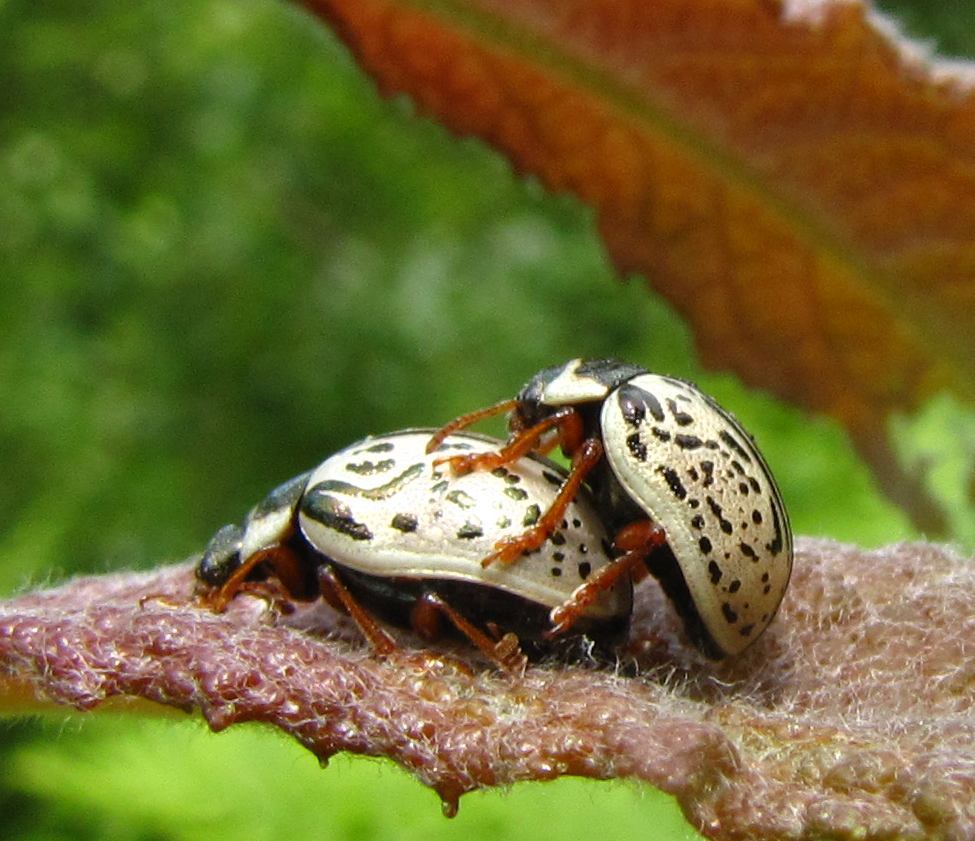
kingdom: Animalia
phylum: Arthropoda
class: Insecta
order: Coleoptera
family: Chrysomelidae
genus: Calligrapha
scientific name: Calligrapha multipunctata
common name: Common willow calligrapher beetle
